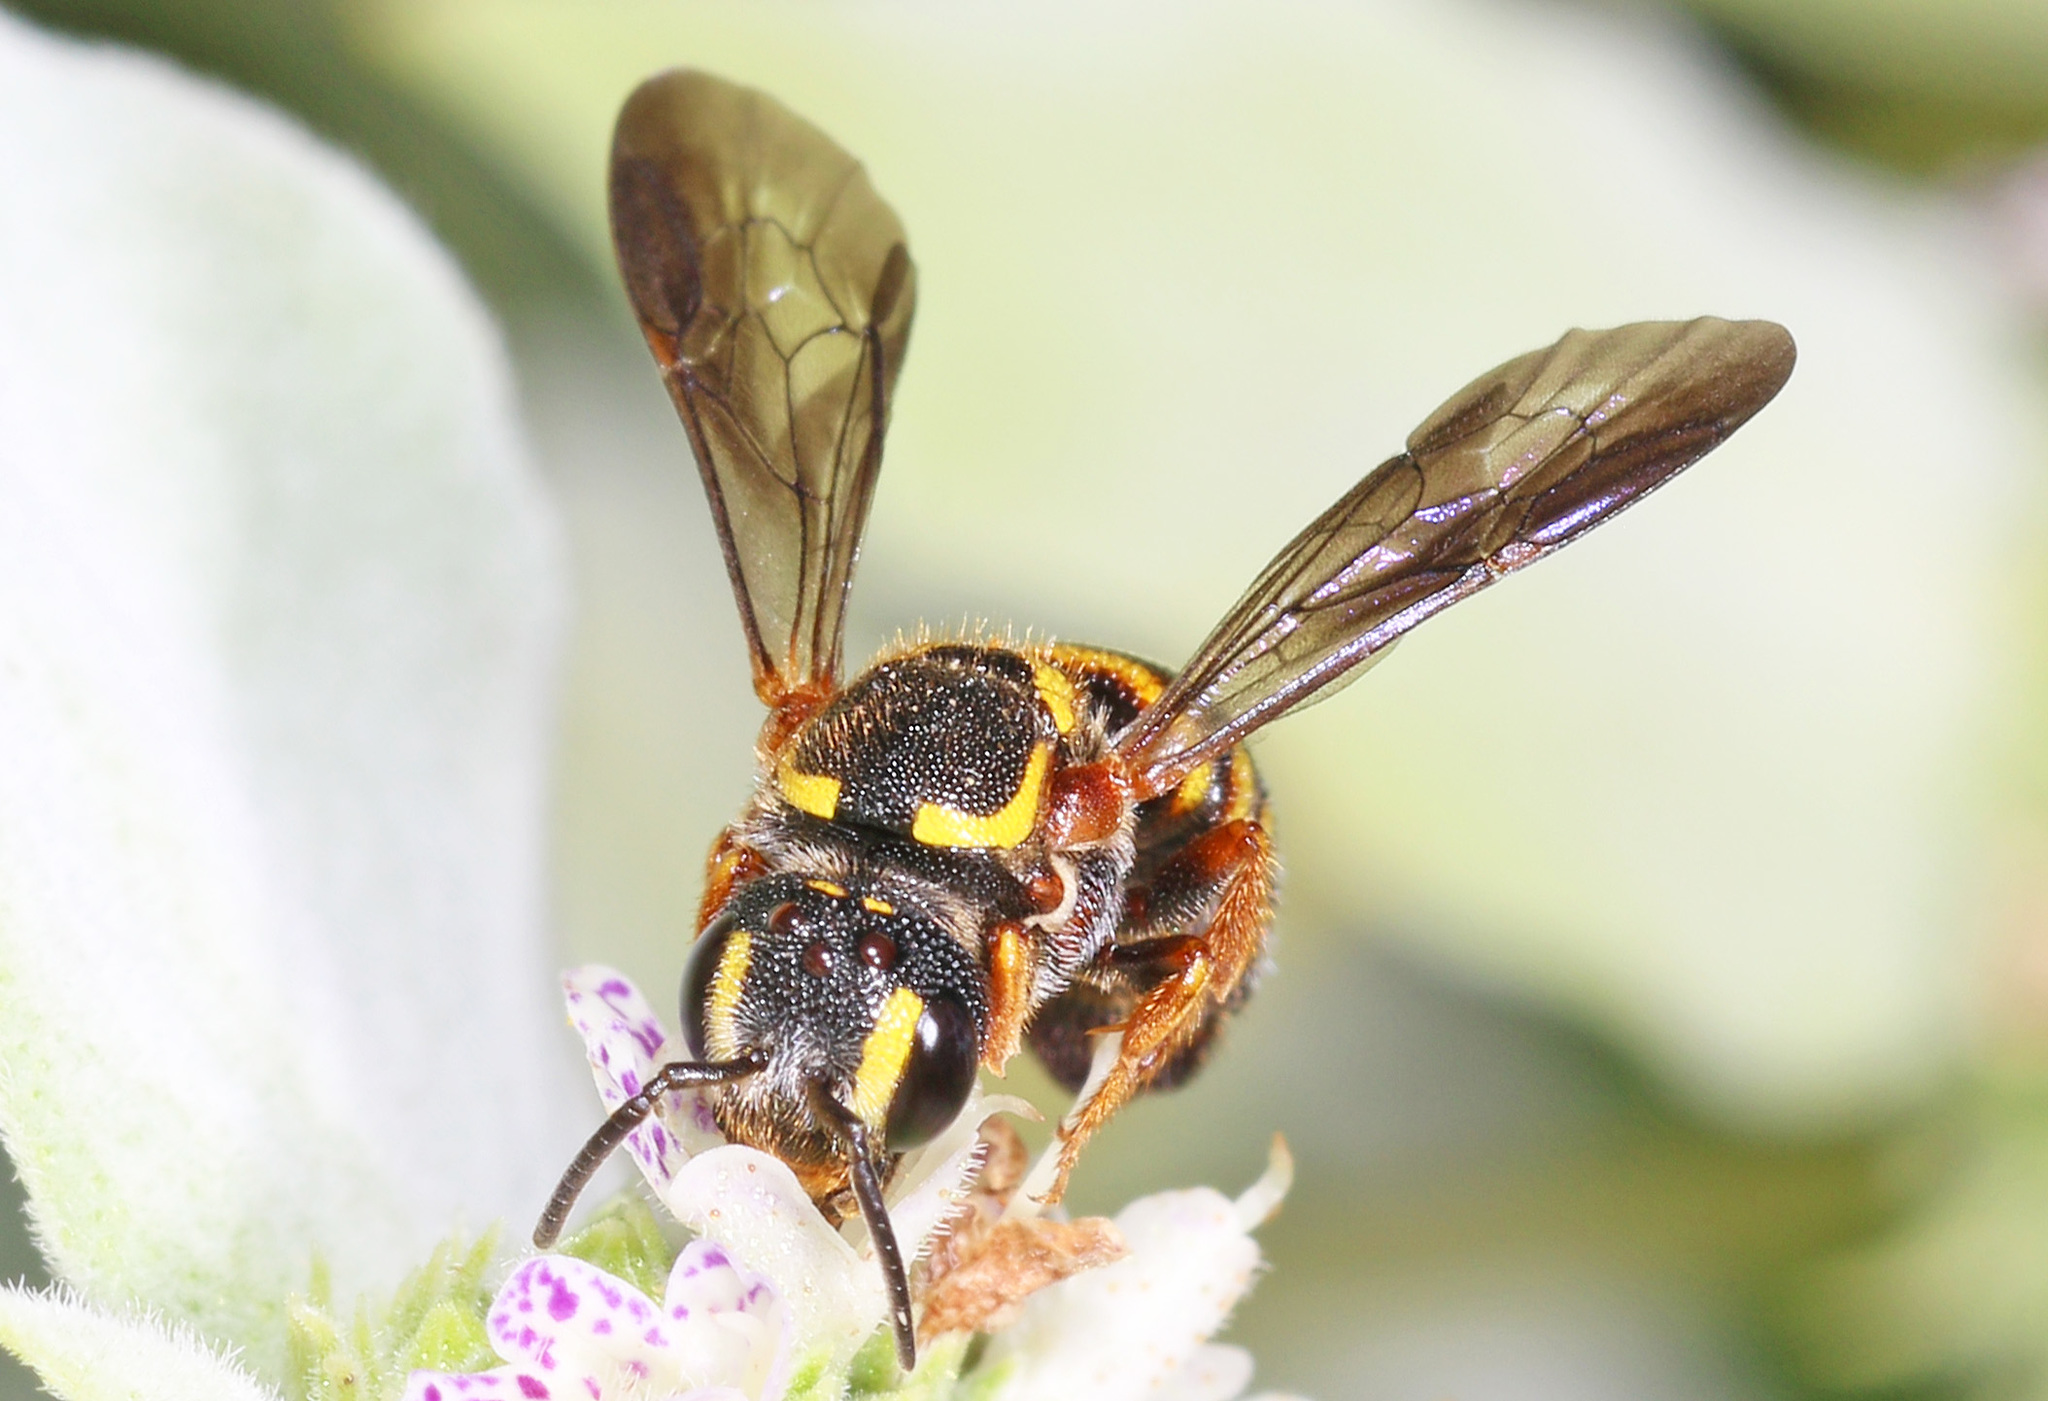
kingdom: Animalia
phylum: Arthropoda
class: Insecta
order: Hymenoptera
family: Megachilidae
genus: Stelis
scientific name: Stelis louisae
